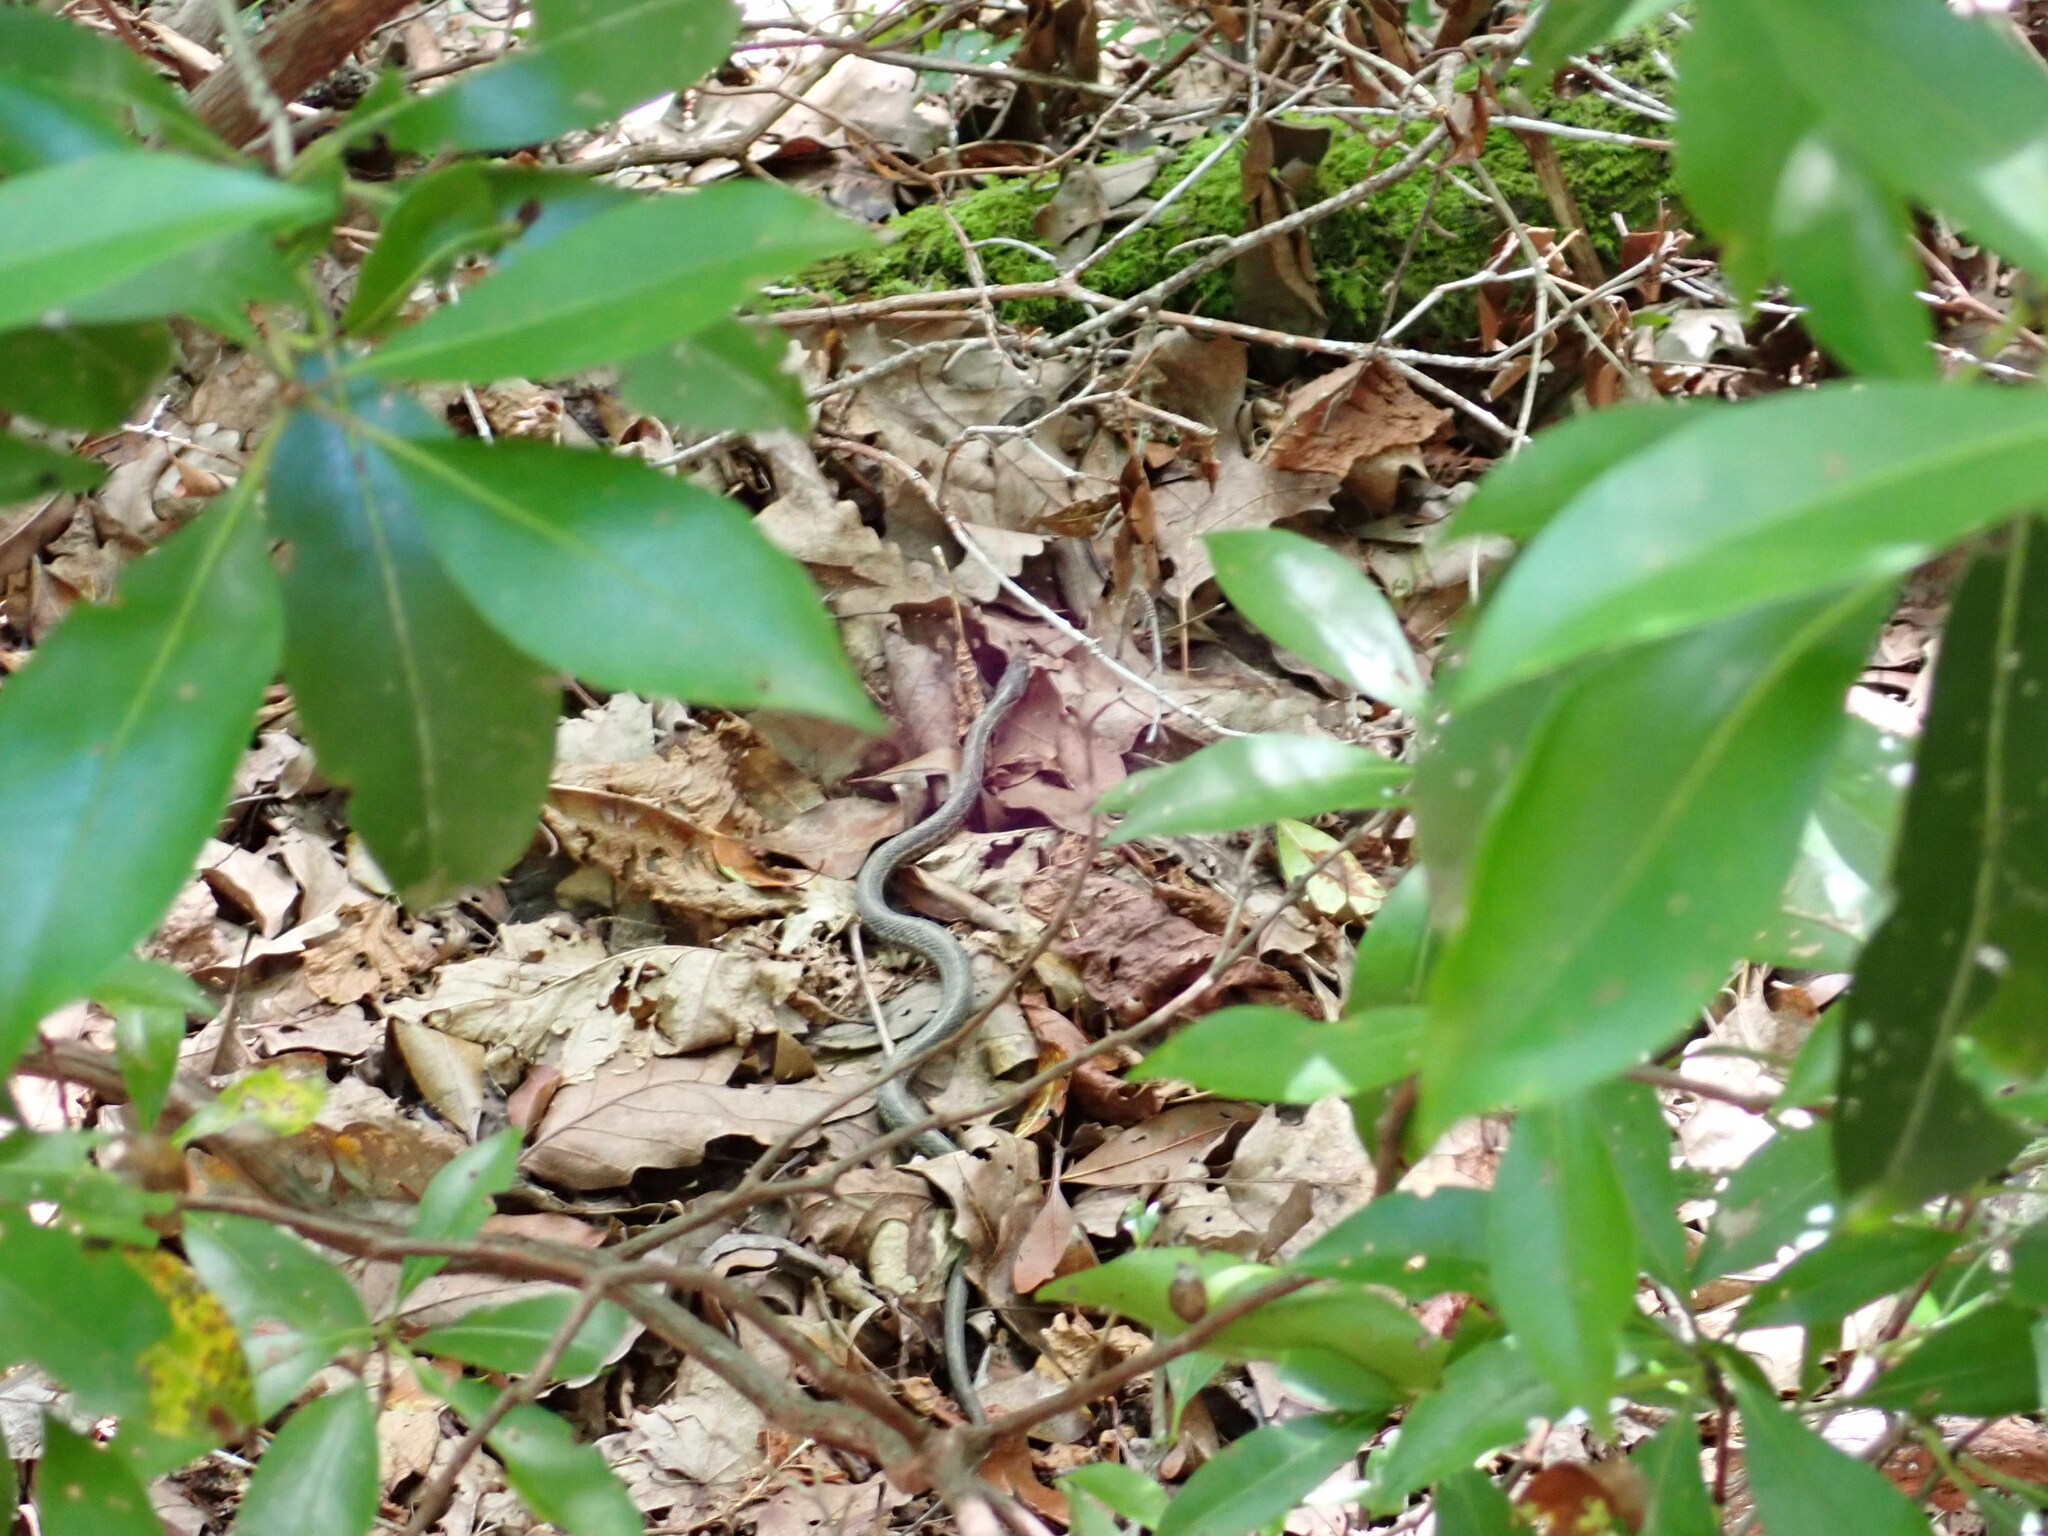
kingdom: Animalia
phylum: Chordata
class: Squamata
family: Colubridae
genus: Thamnophis
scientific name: Thamnophis sirtalis
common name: Common garter snake
